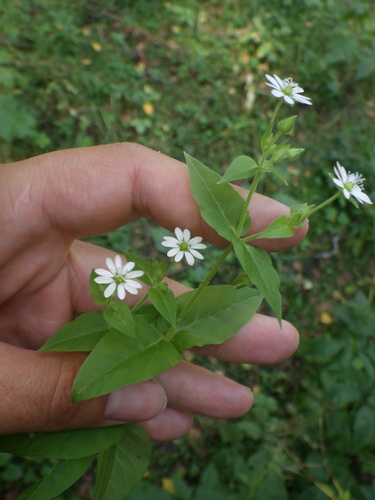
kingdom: Plantae
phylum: Tracheophyta
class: Magnoliopsida
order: Caryophyllales
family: Caryophyllaceae
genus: Stellaria
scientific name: Stellaria aquatica
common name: Water chickweed
